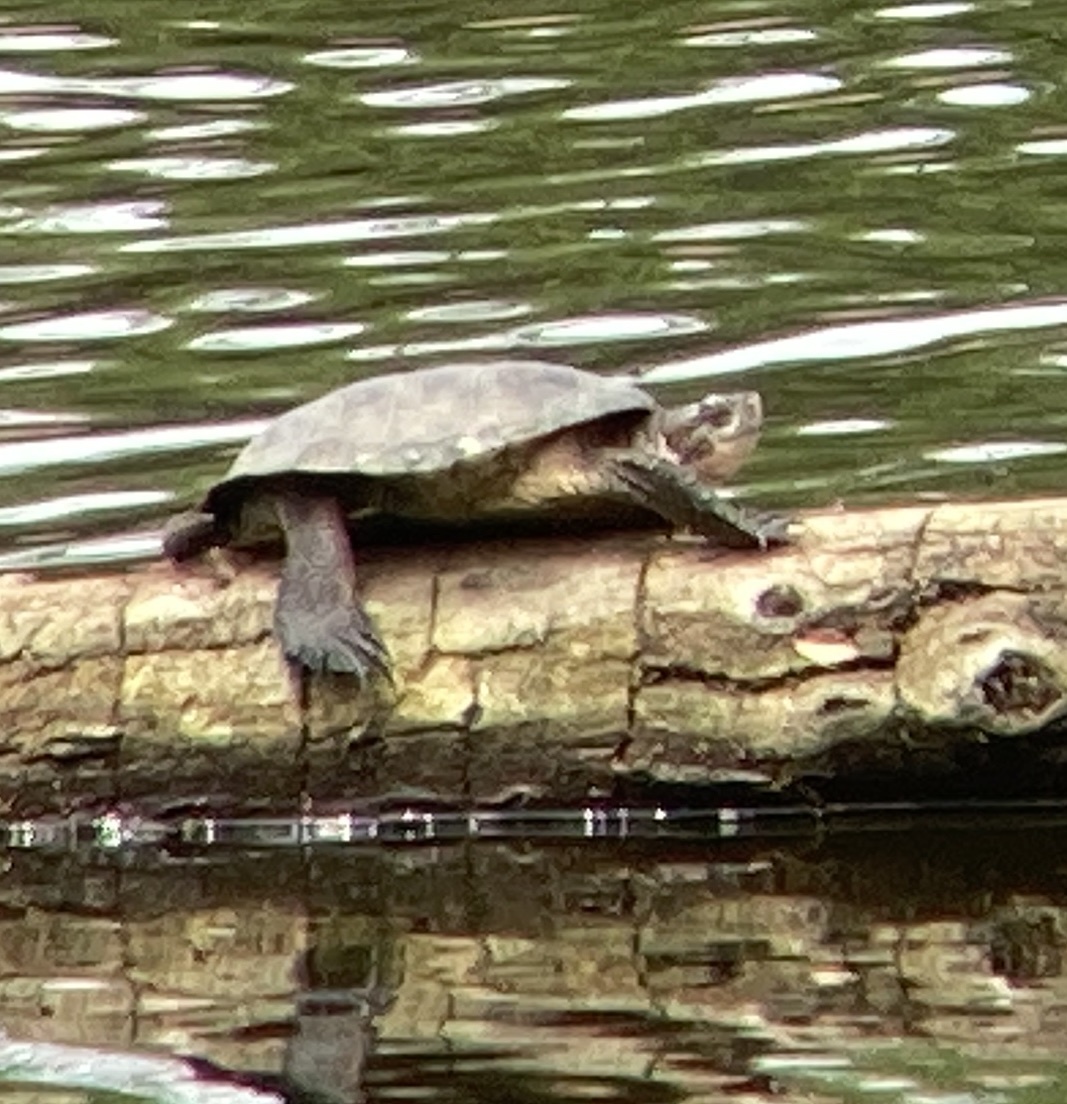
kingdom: Animalia
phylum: Chordata
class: Testudines
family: Emydidae
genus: Actinemys
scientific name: Actinemys marmorata
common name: Western pond turtle
